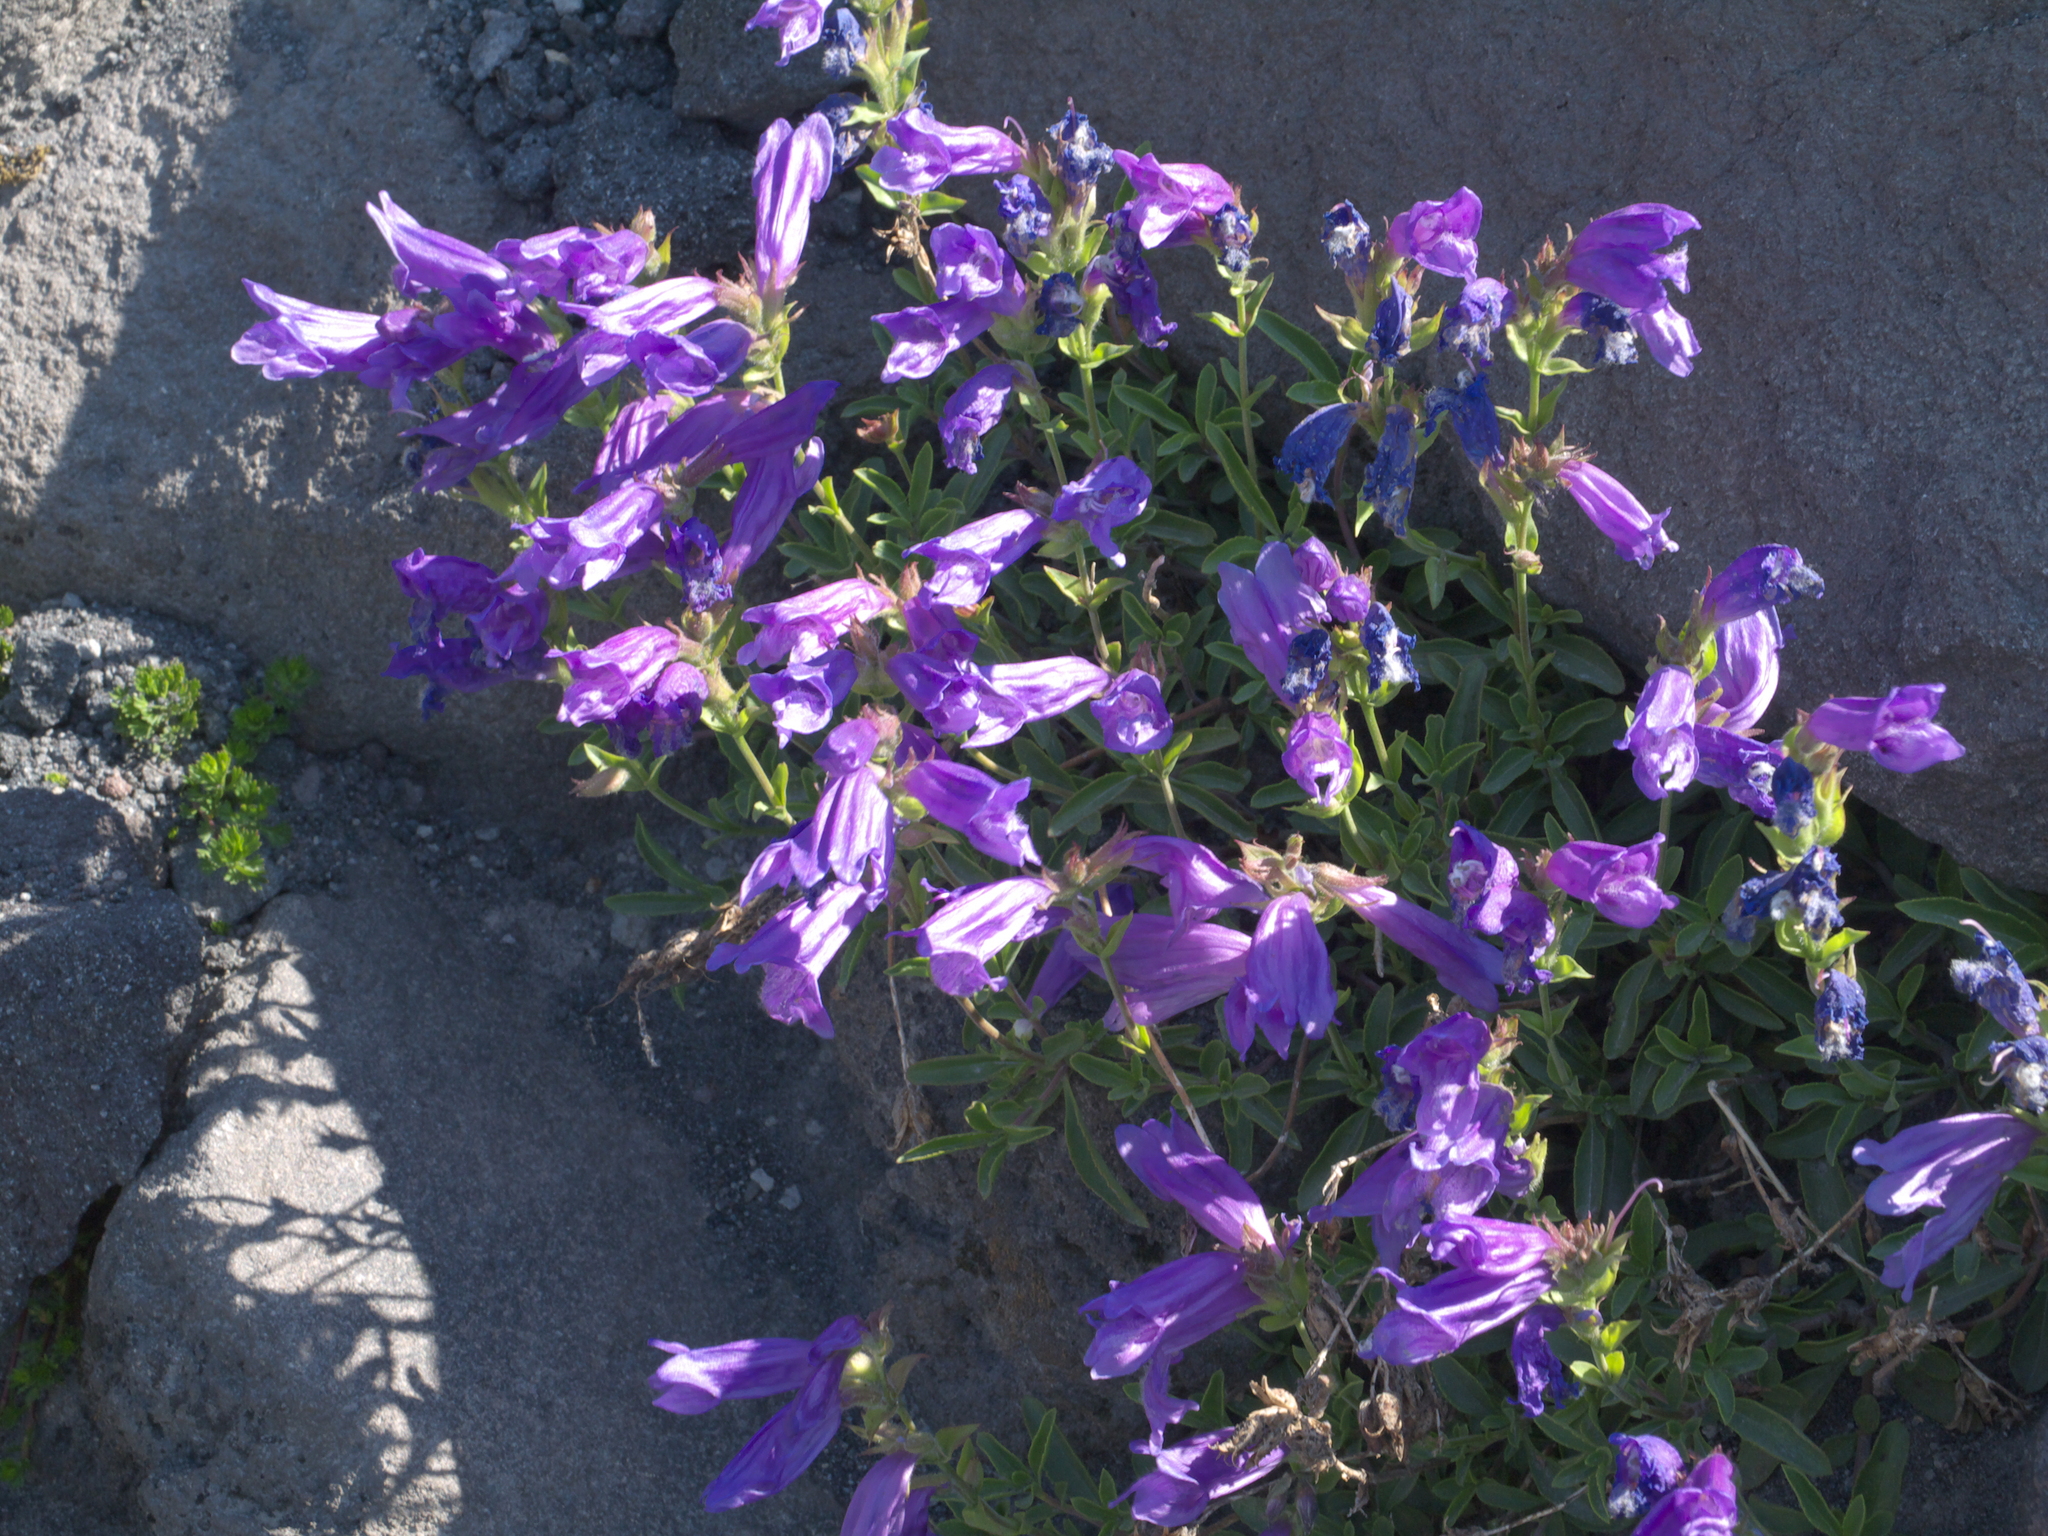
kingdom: Plantae
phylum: Tracheophyta
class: Magnoliopsida
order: Lamiales
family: Plantaginaceae
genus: Penstemon
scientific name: Penstemon cardwellii
